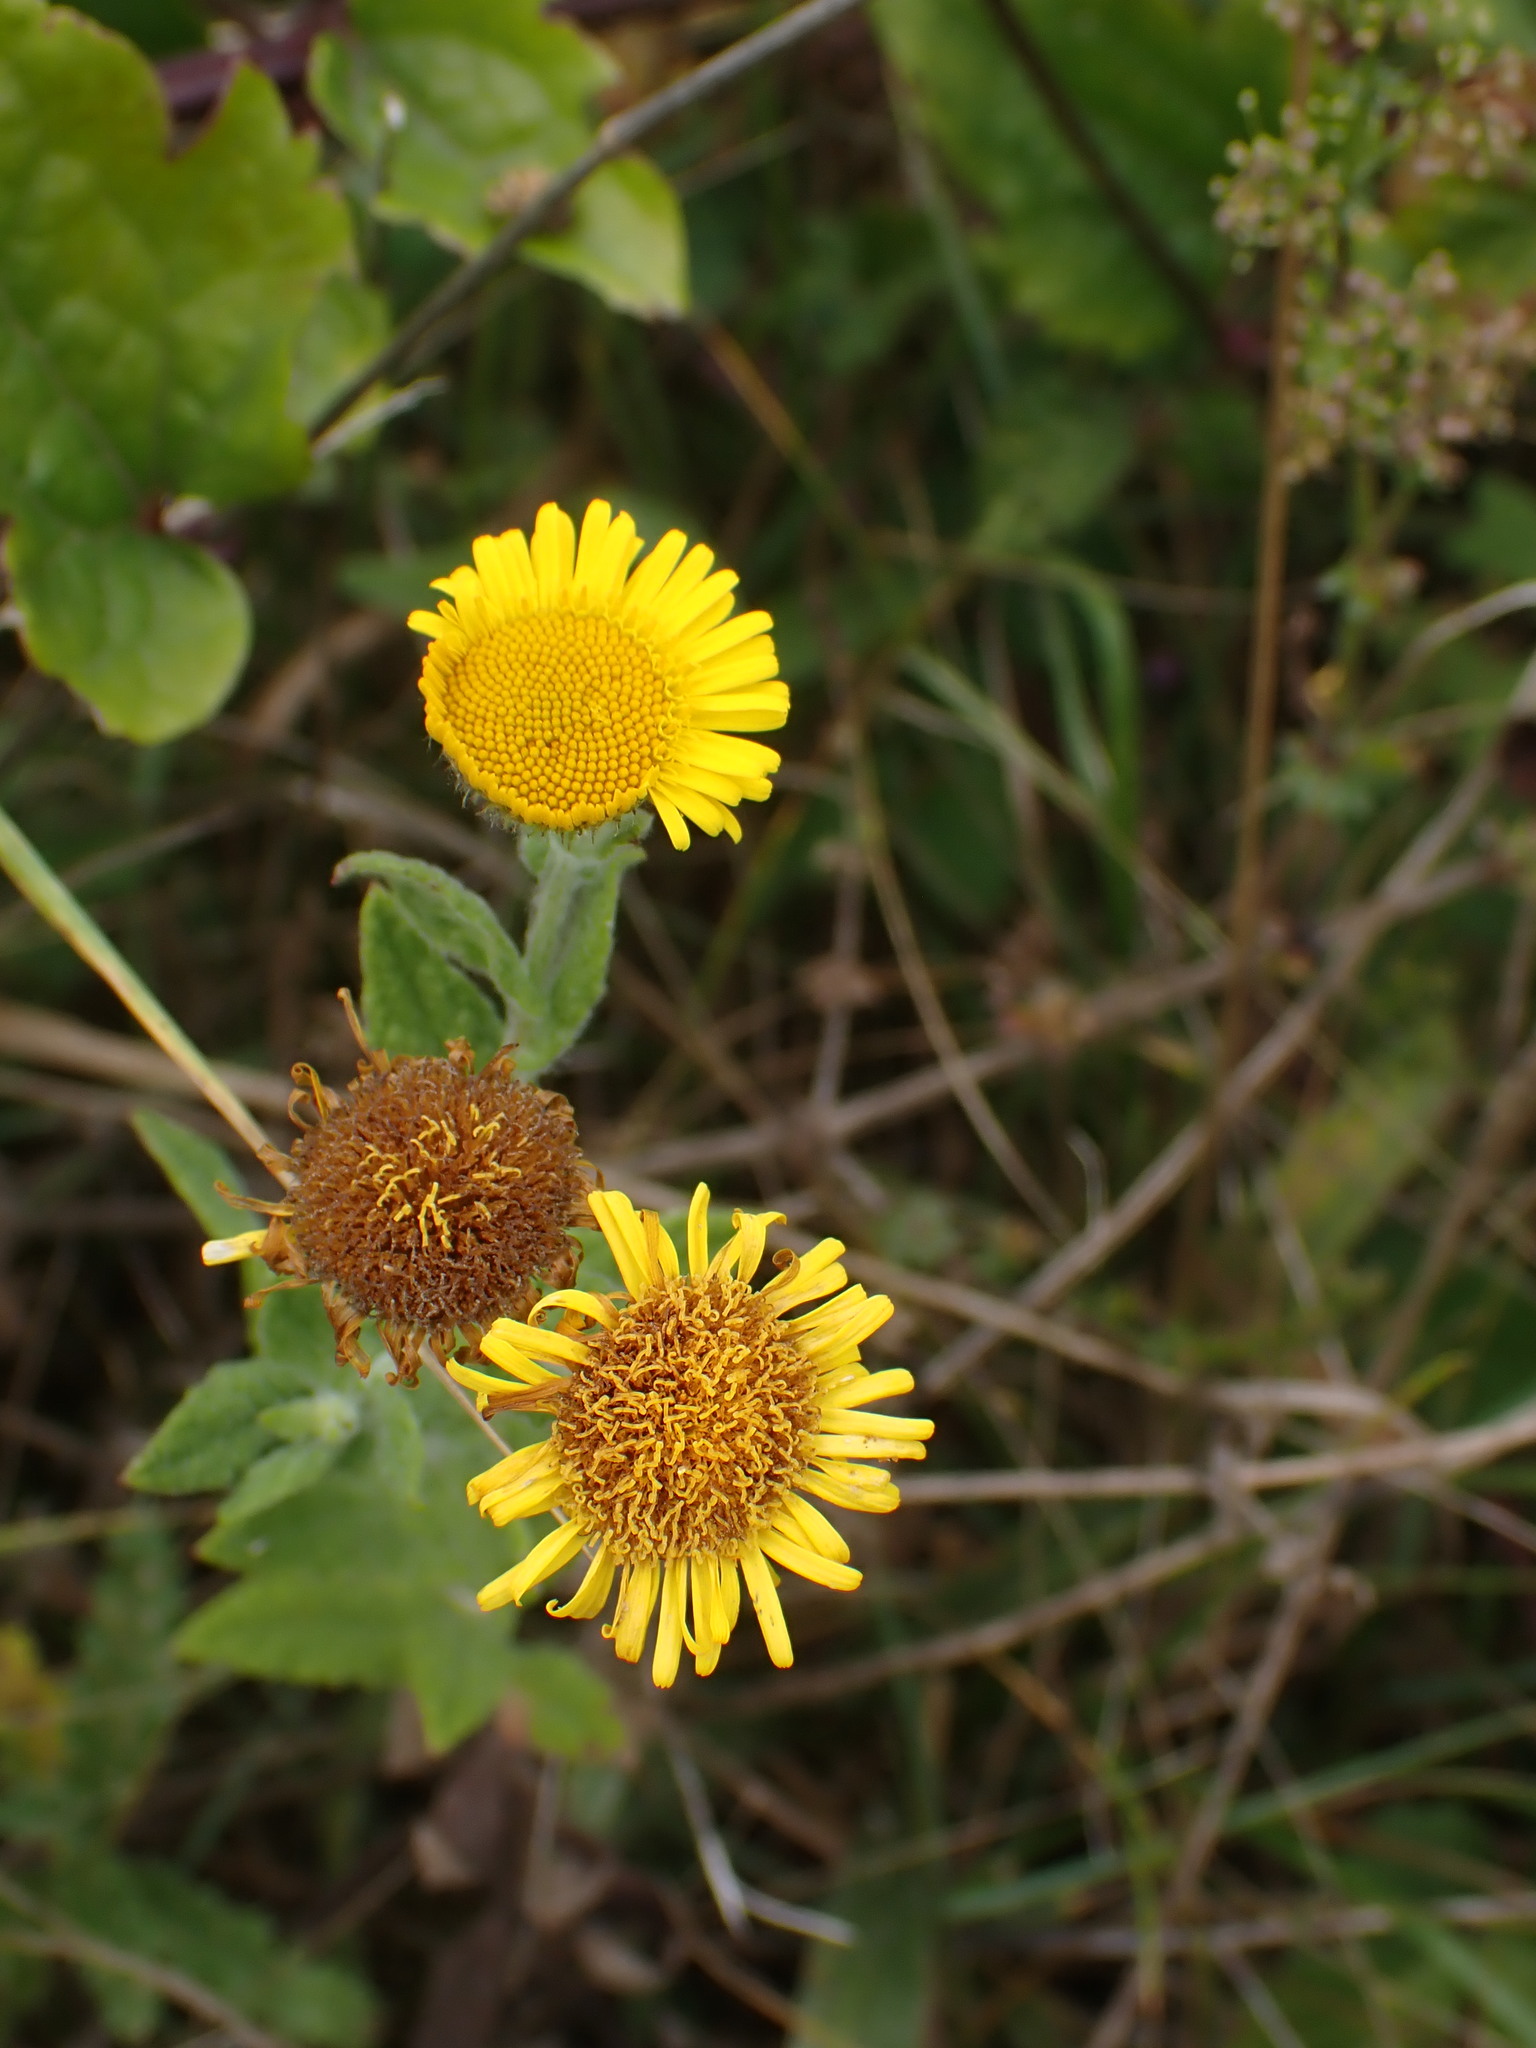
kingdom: Plantae
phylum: Tracheophyta
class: Magnoliopsida
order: Asterales
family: Asteraceae
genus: Pulicaria
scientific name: Pulicaria dysenterica
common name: Common fleabane
